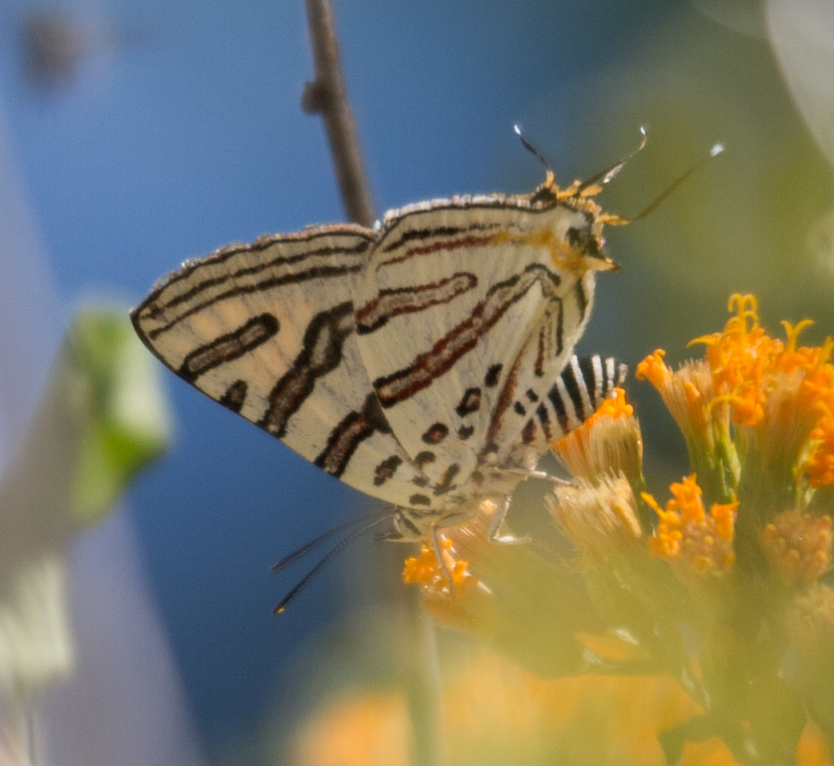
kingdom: Animalia
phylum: Arthropoda
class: Insecta
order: Lepidoptera
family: Lycaenidae
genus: Spindasis
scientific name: Spindasis natalensis
